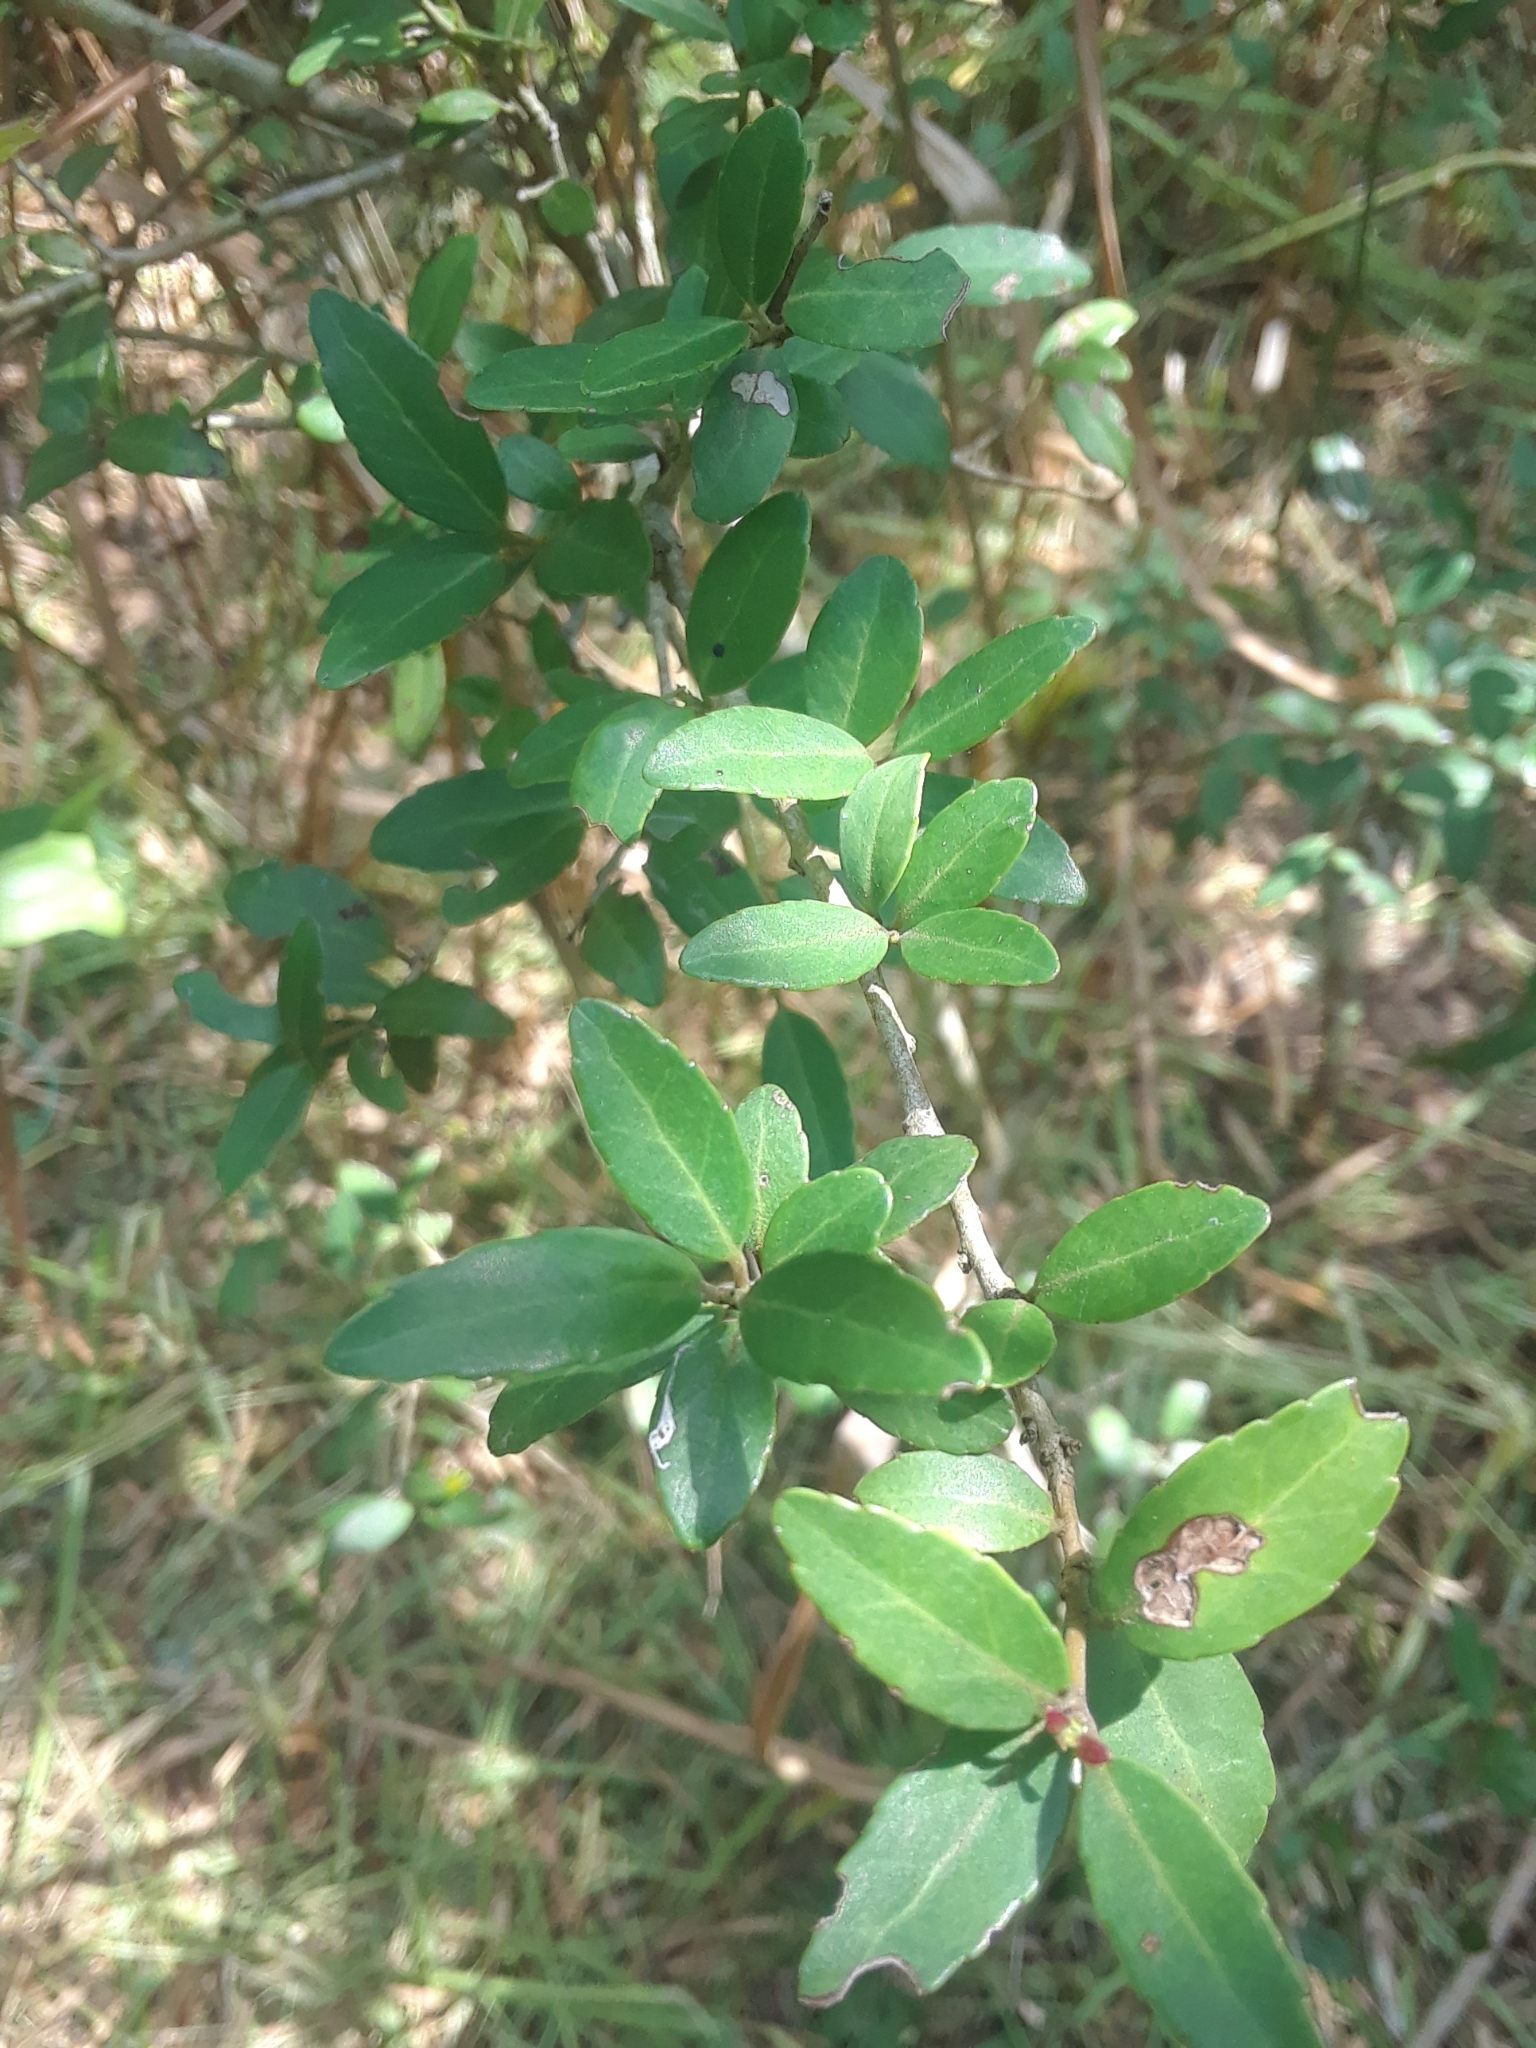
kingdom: Plantae
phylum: Tracheophyta
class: Magnoliopsida
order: Aquifoliales
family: Aquifoliaceae
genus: Ilex
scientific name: Ilex vomitoria
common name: Yaupon holly
